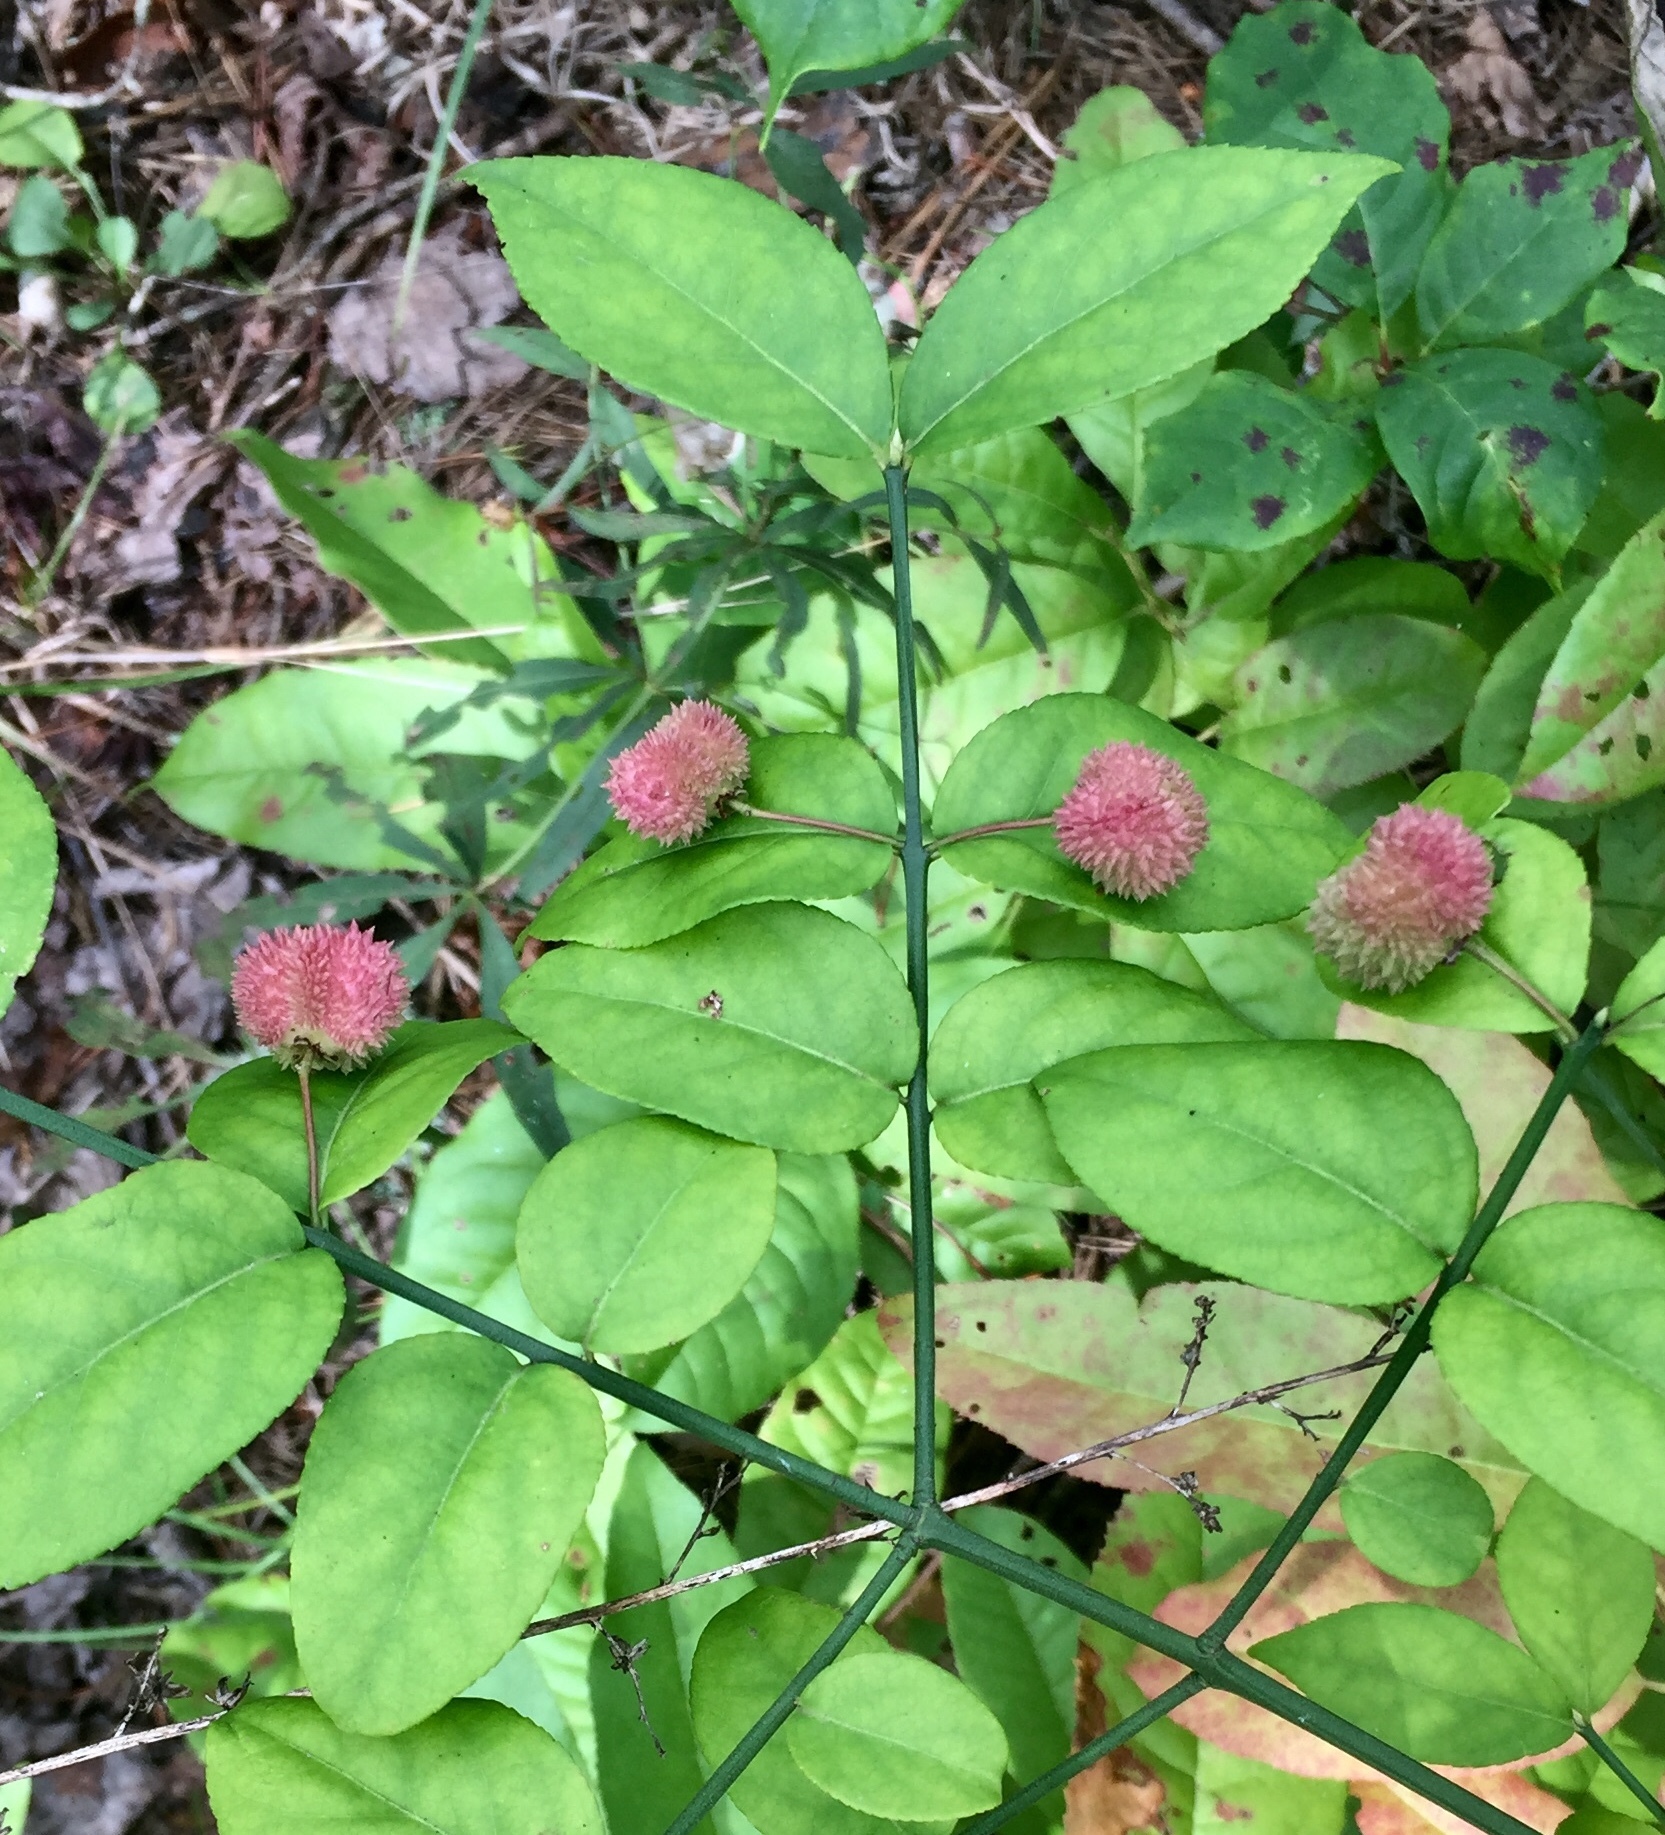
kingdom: Plantae
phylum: Tracheophyta
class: Magnoliopsida
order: Celastrales
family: Celastraceae
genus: Euonymus
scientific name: Euonymus americanus
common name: Bursting-heart
